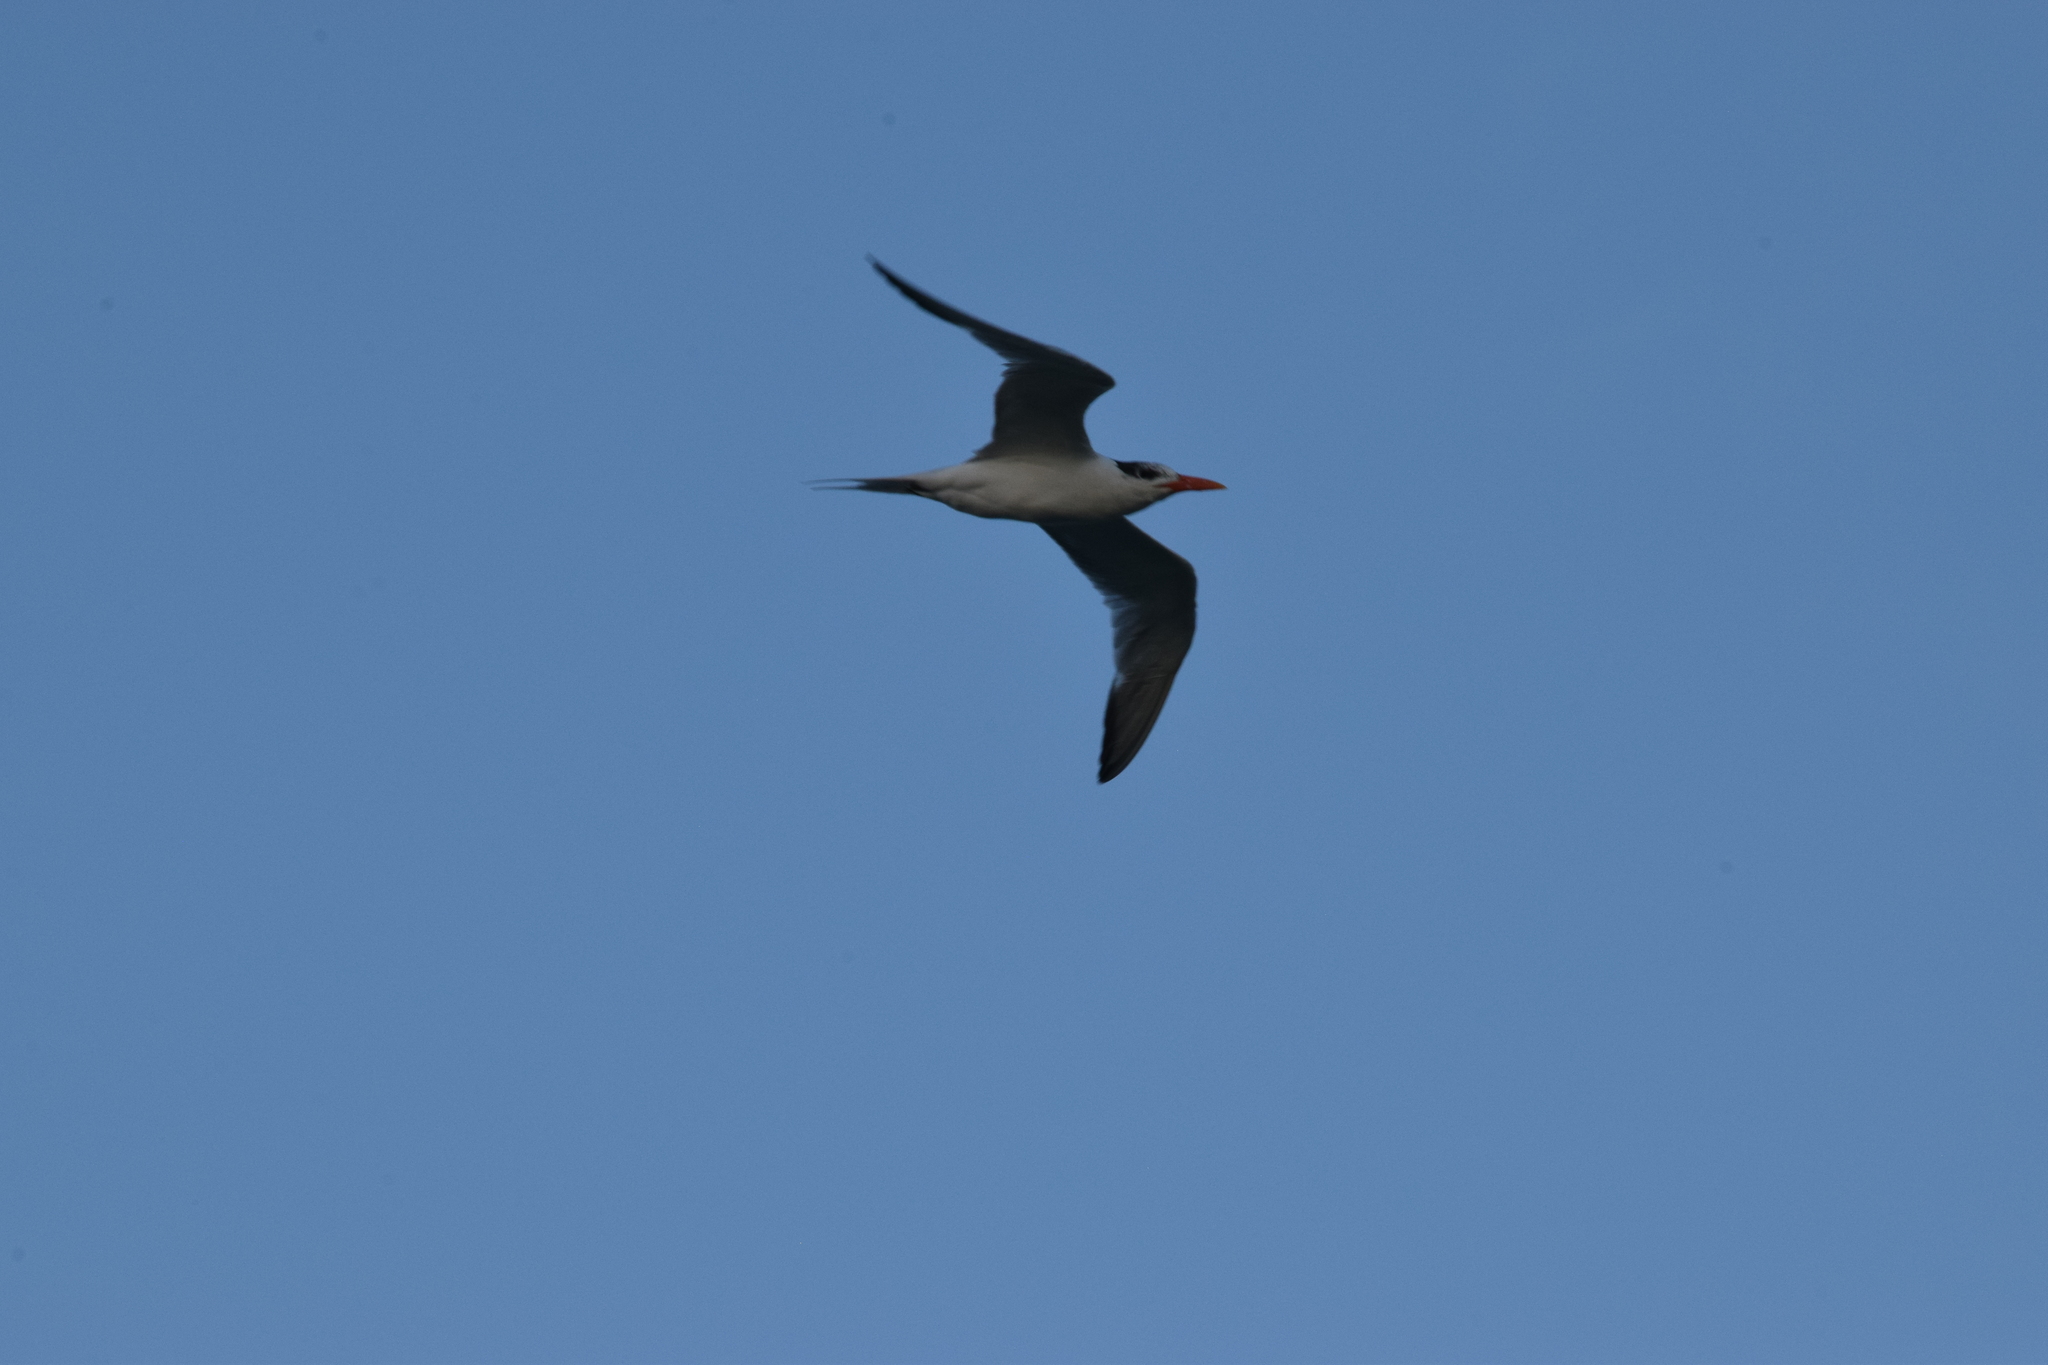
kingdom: Animalia
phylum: Chordata
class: Aves
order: Charadriiformes
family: Laridae
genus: Thalasseus
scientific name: Thalasseus maximus
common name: Royal tern
